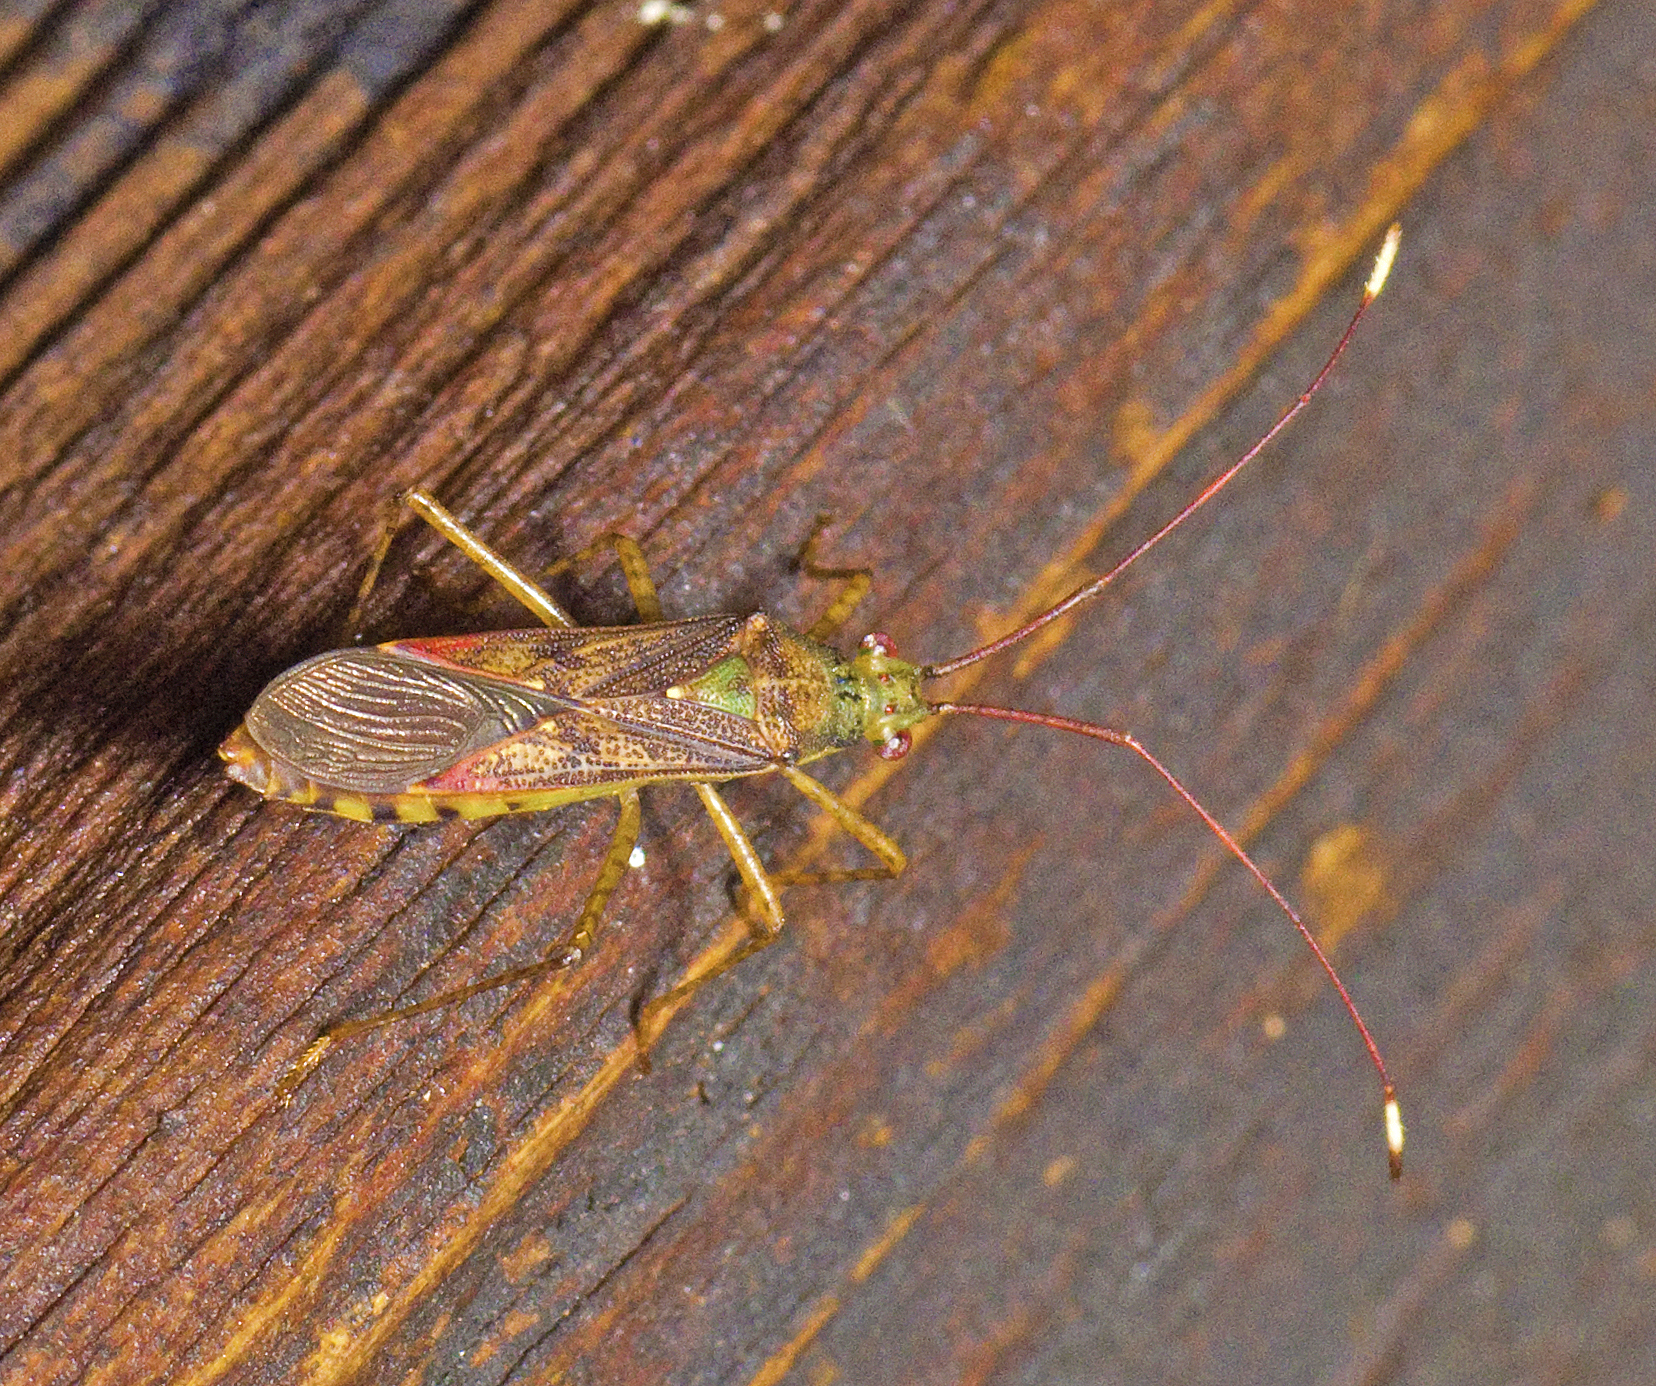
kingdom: Animalia
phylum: Arthropoda
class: Insecta
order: Hemiptera
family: Coreidae
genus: Jalina
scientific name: Jalina ocularis
